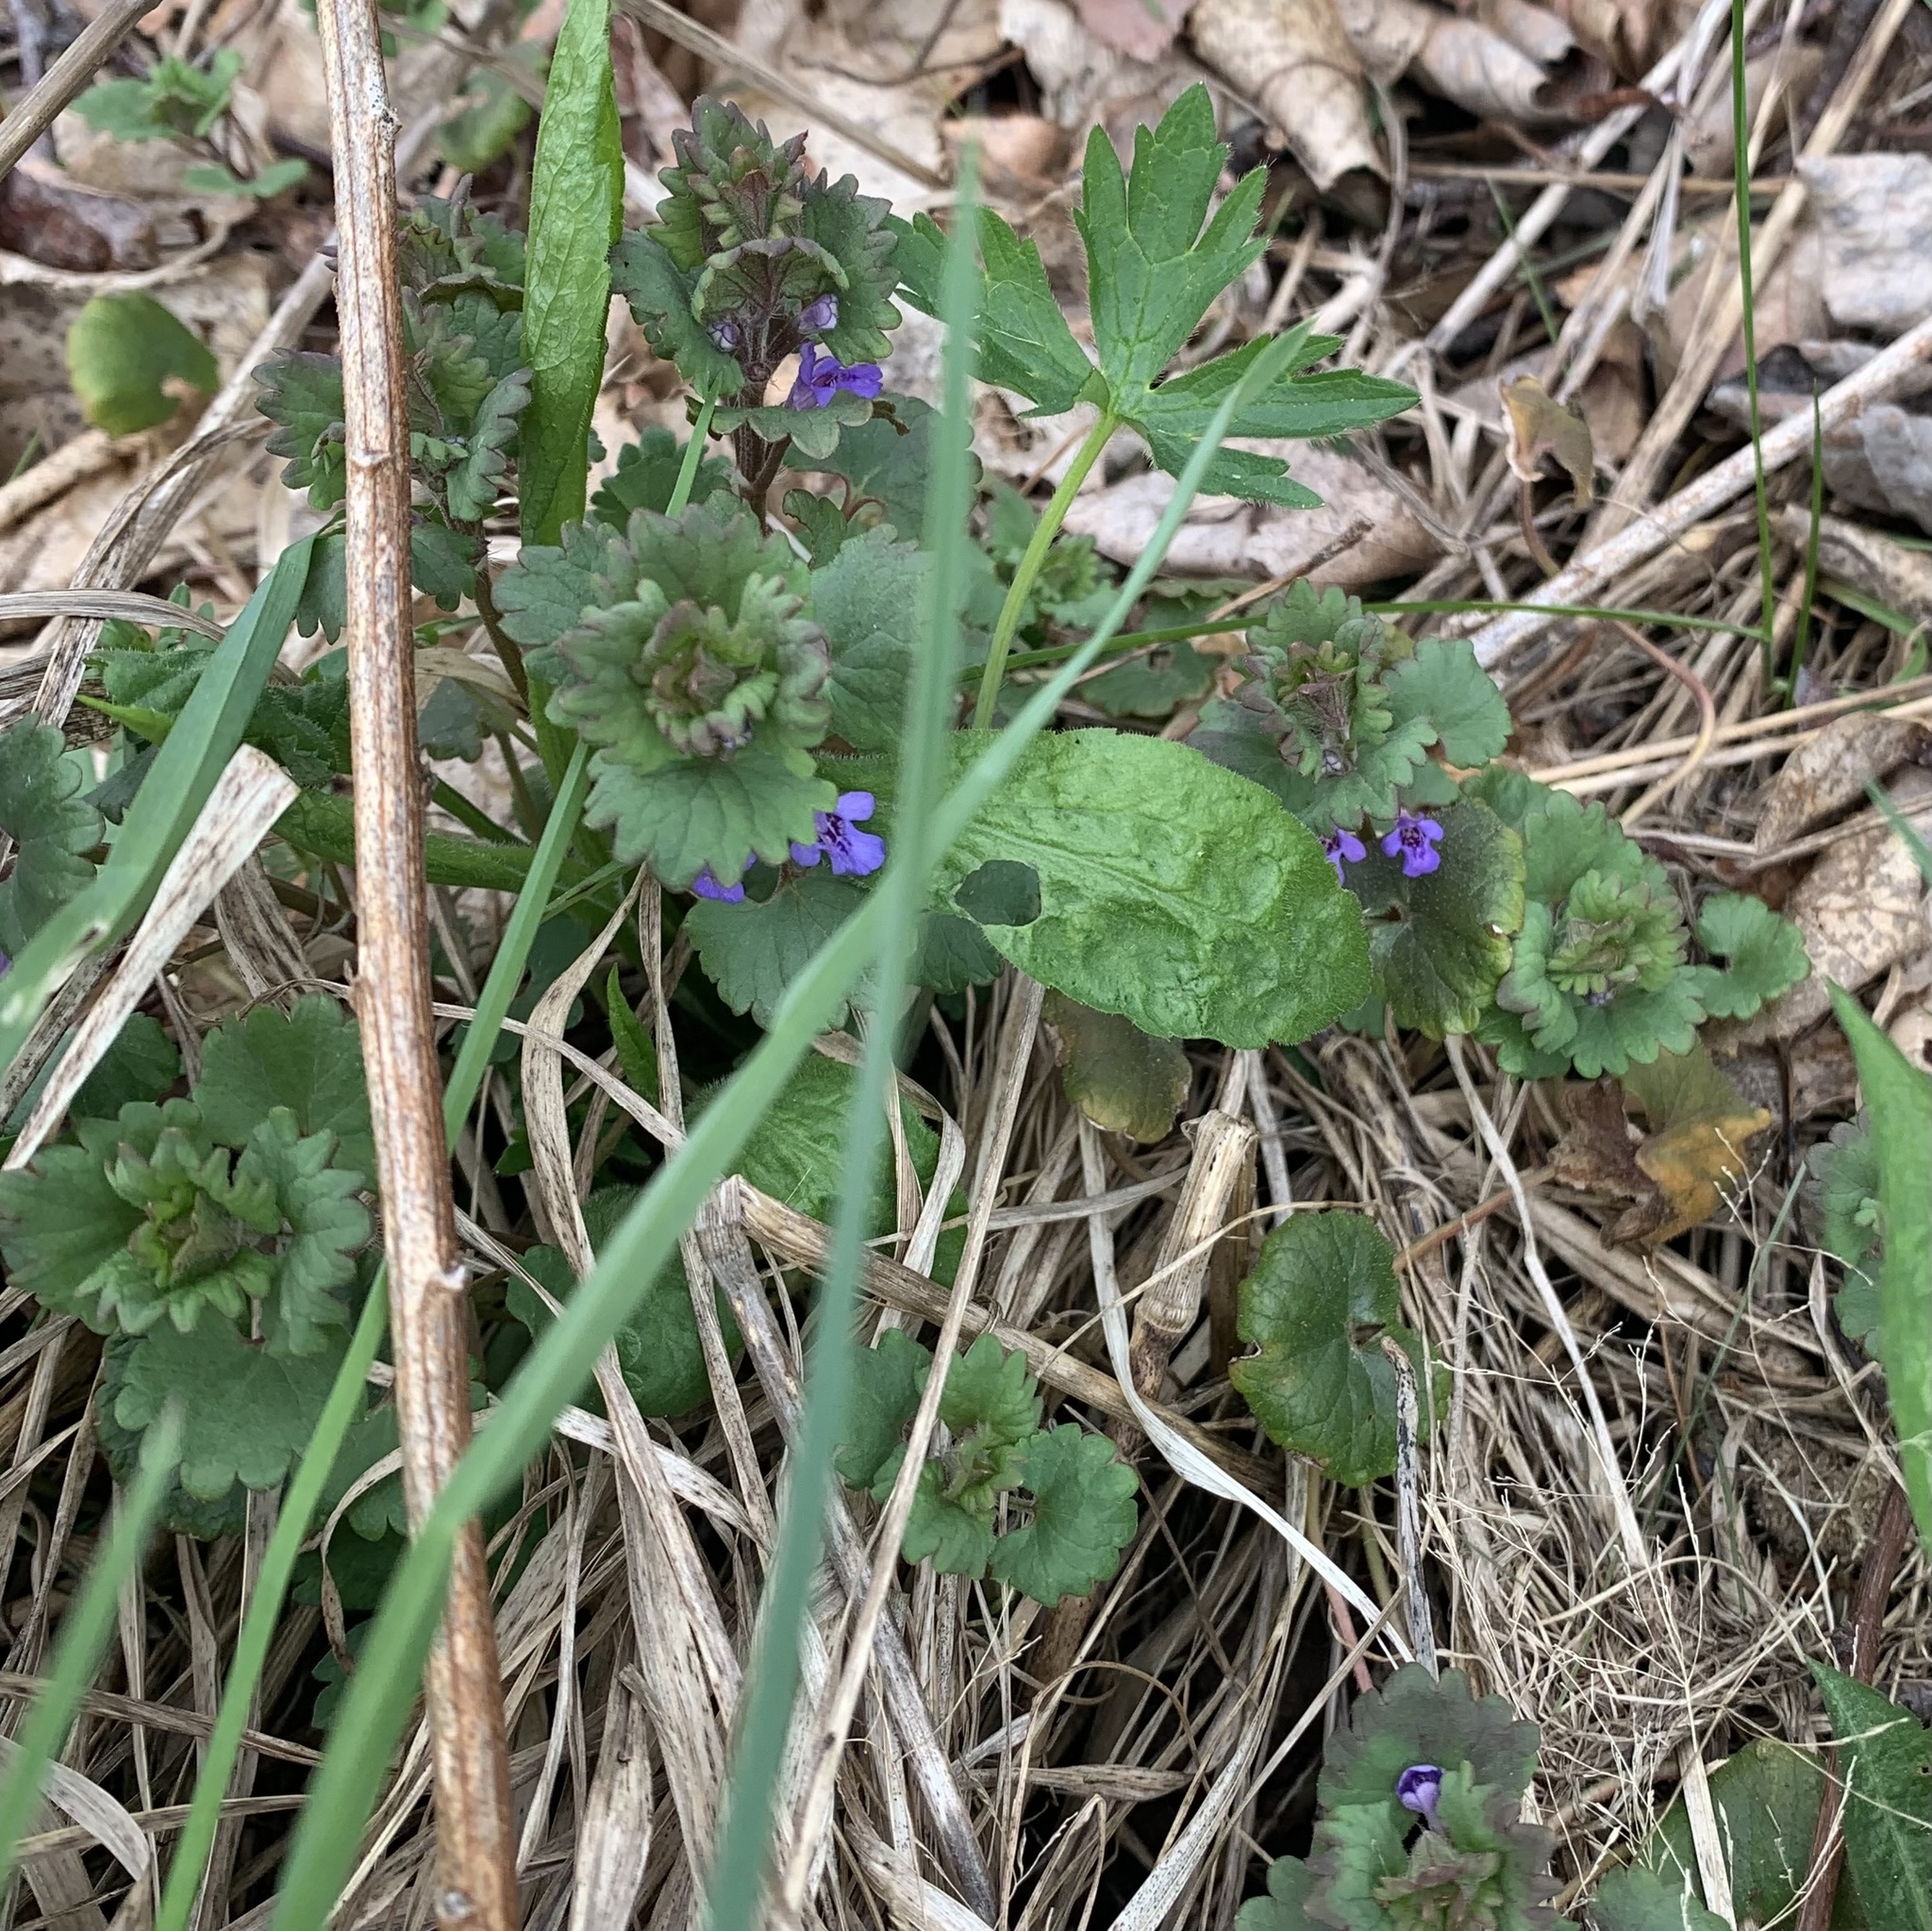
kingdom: Plantae
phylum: Tracheophyta
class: Magnoliopsida
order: Lamiales
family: Lamiaceae
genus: Glechoma
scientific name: Glechoma hederacea
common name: Ground ivy
